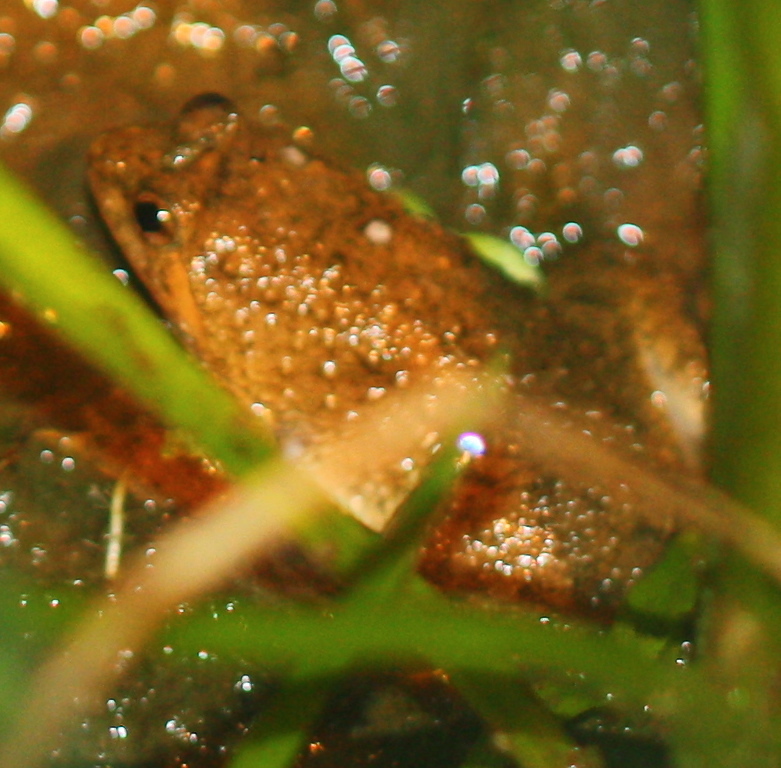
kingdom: Animalia
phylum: Chordata
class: Amphibia
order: Anura
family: Dicroglossidae
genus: Occidozyga
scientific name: Occidozyga sumatrana
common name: Puddle frog
